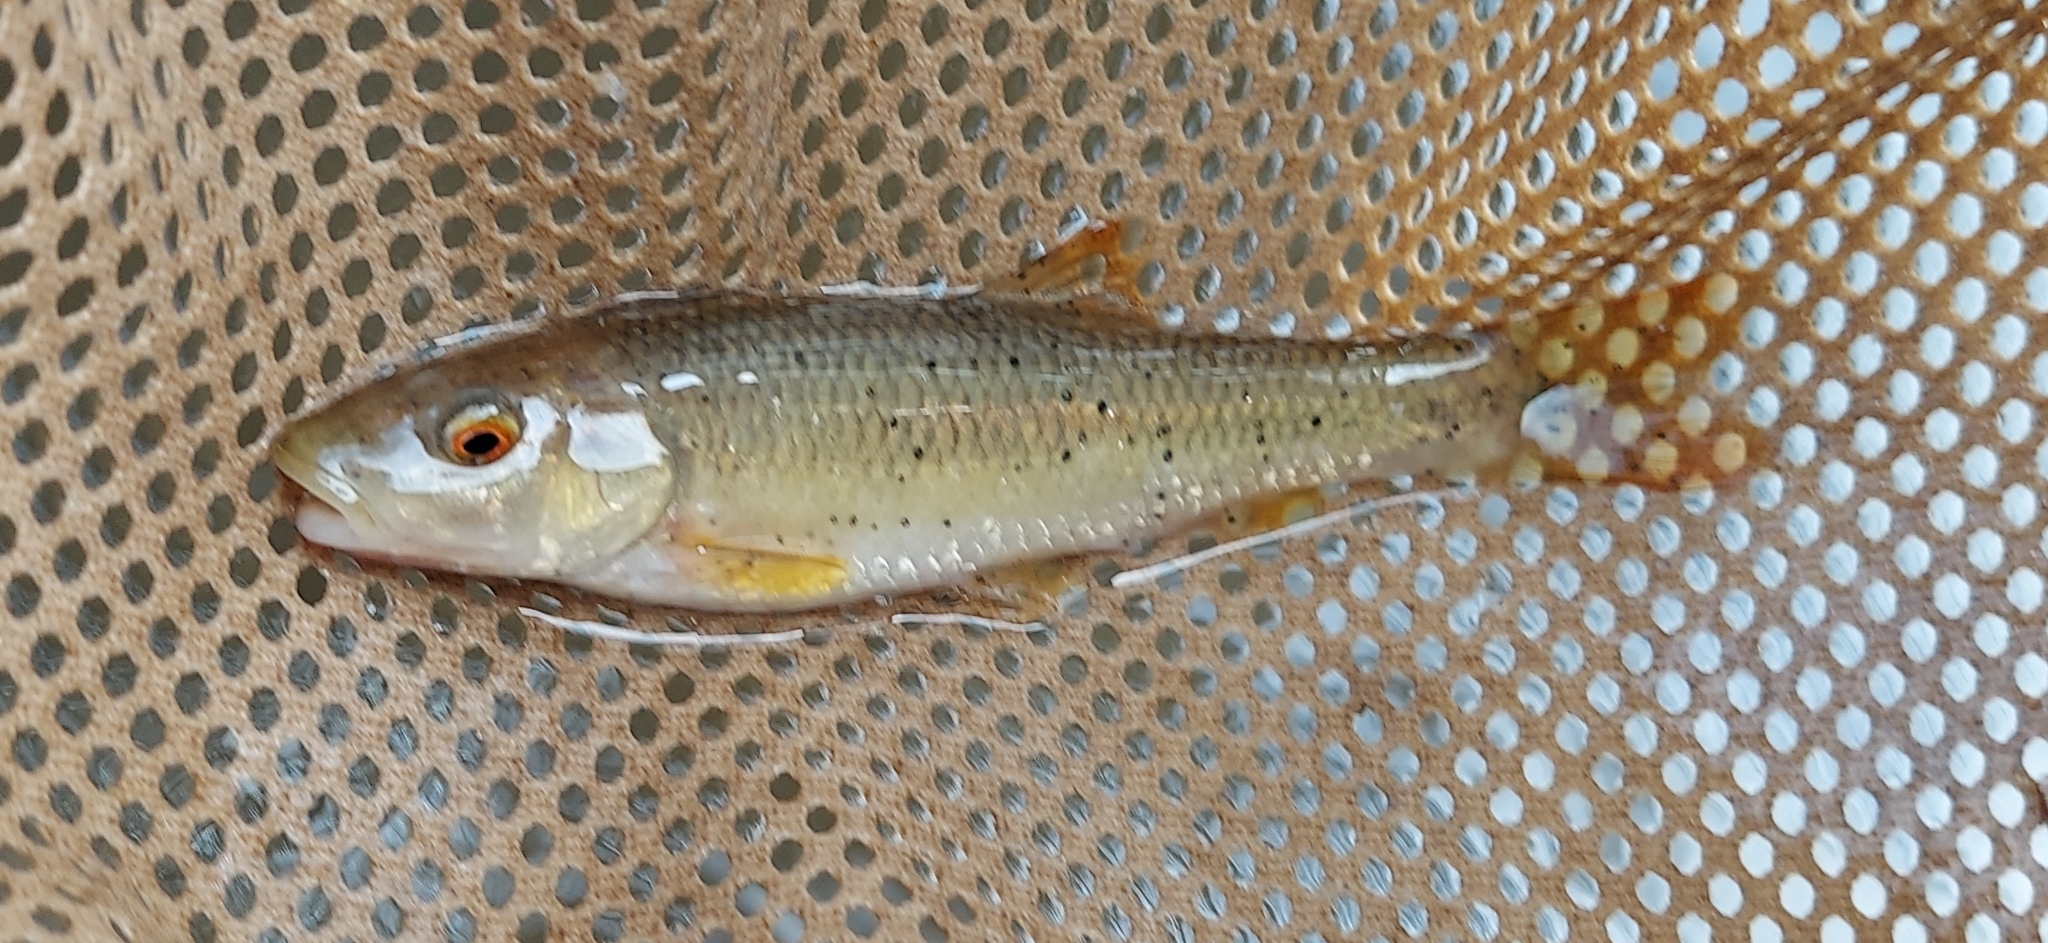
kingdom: Animalia
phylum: Chordata
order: Cypriniformes
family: Cyprinidae
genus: Nocomis
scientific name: Nocomis leptocephalus
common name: Bluehead chub
